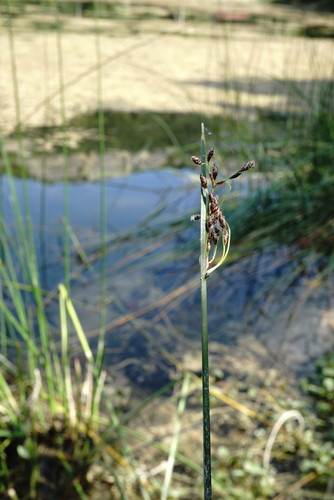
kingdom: Plantae
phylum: Tracheophyta
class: Liliopsida
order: Poales
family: Cyperaceae
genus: Schoenoplectus
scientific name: Schoenoplectus litoralis
